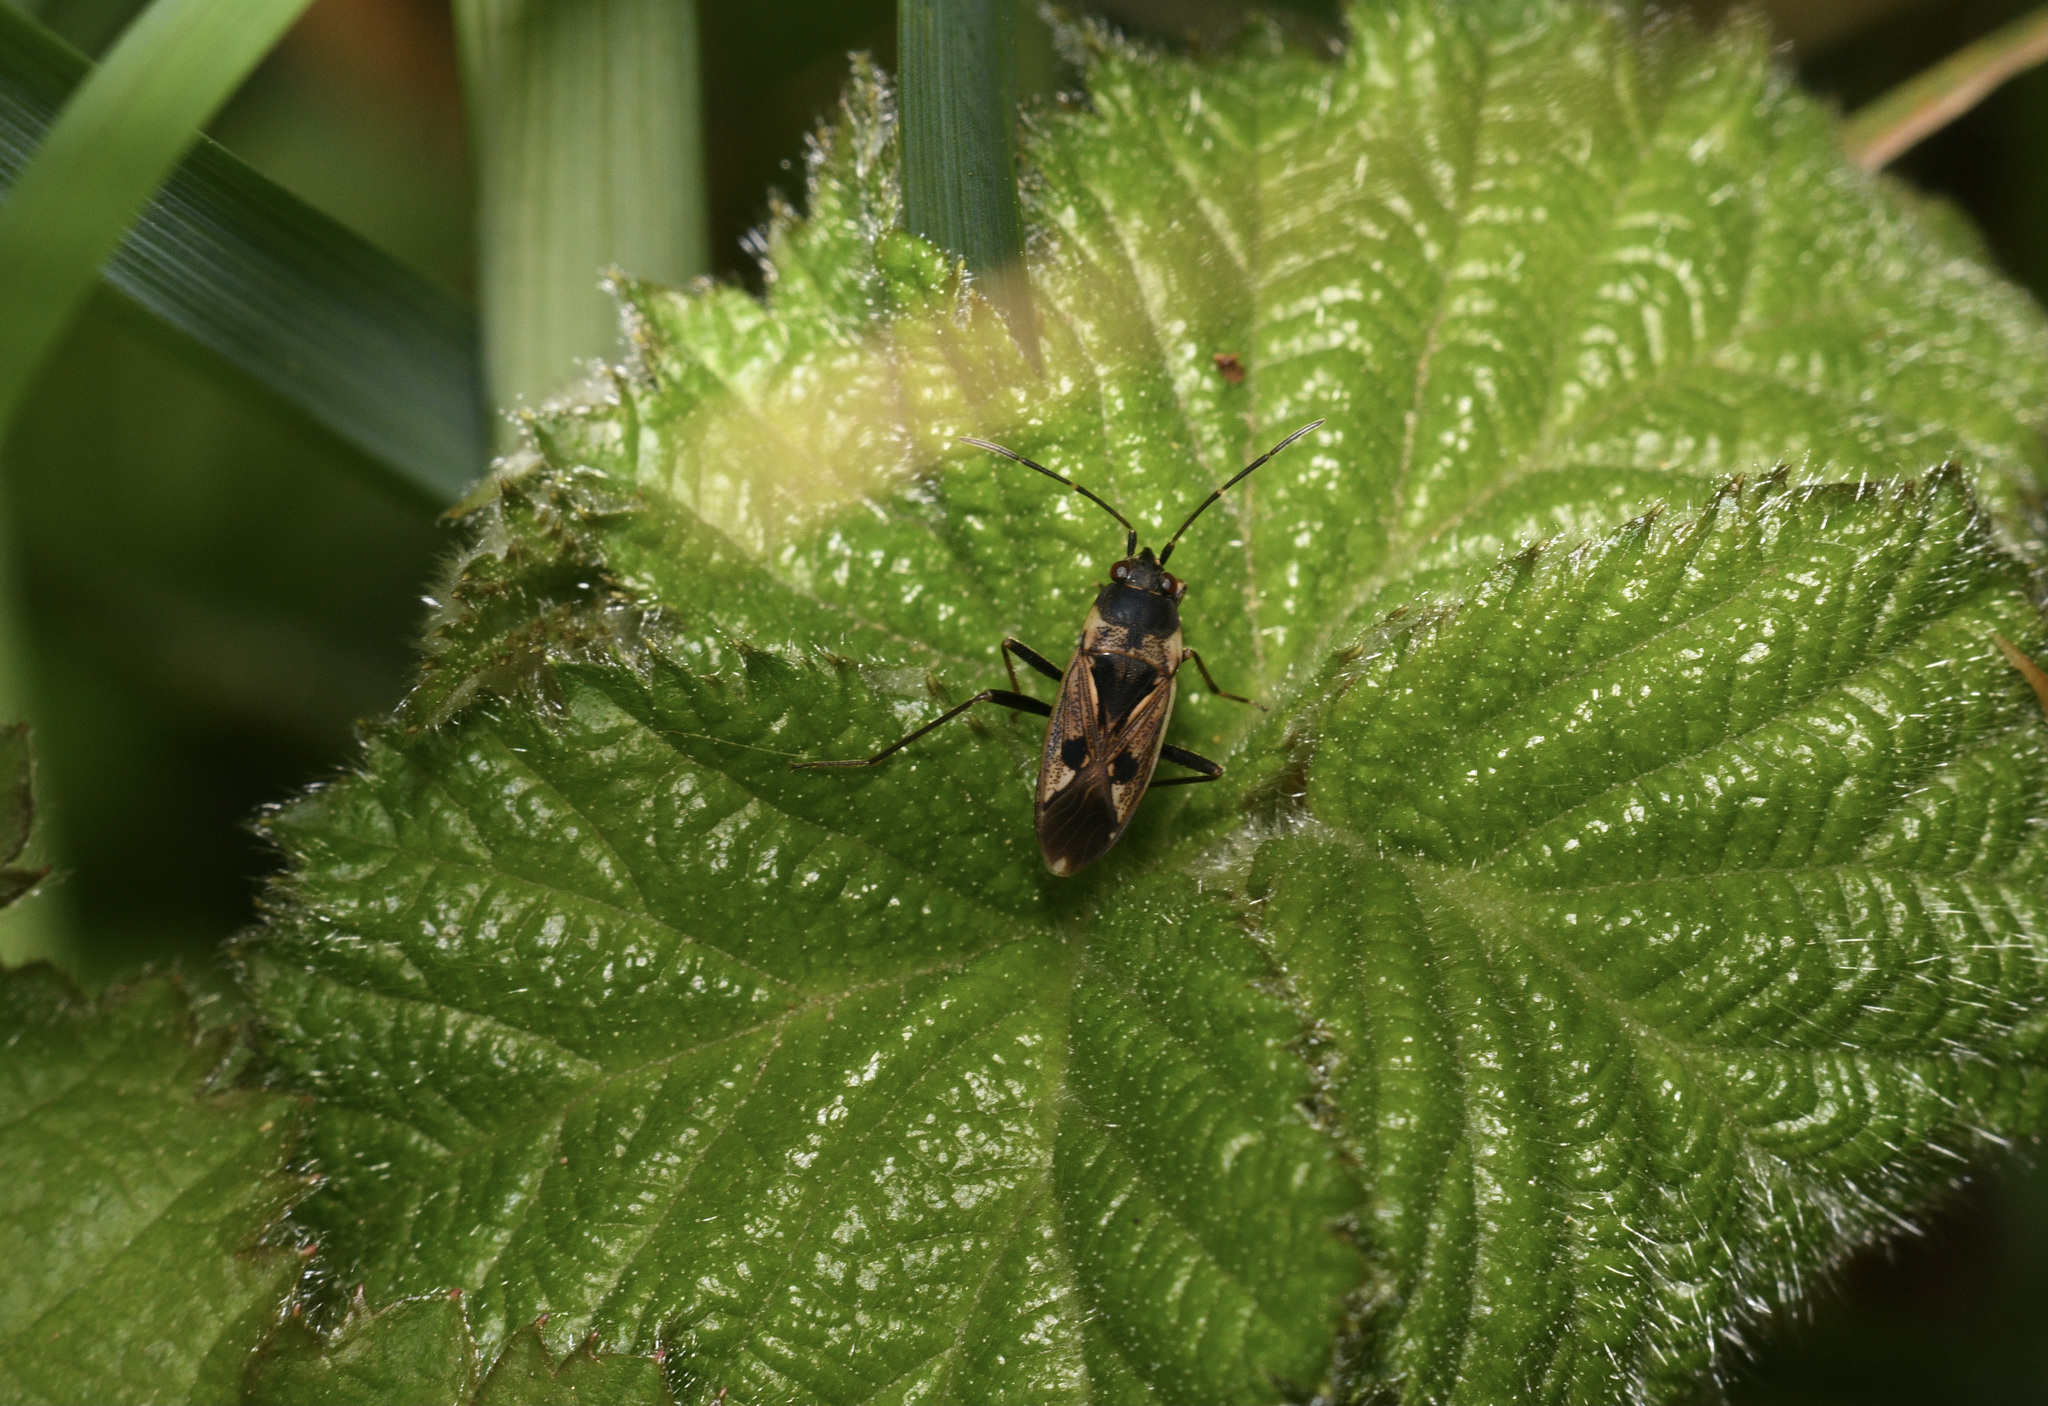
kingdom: Animalia
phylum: Arthropoda
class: Insecta
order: Hemiptera
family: Rhyparochromidae
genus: Rhyparochromus
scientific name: Rhyparochromus vulgaris
